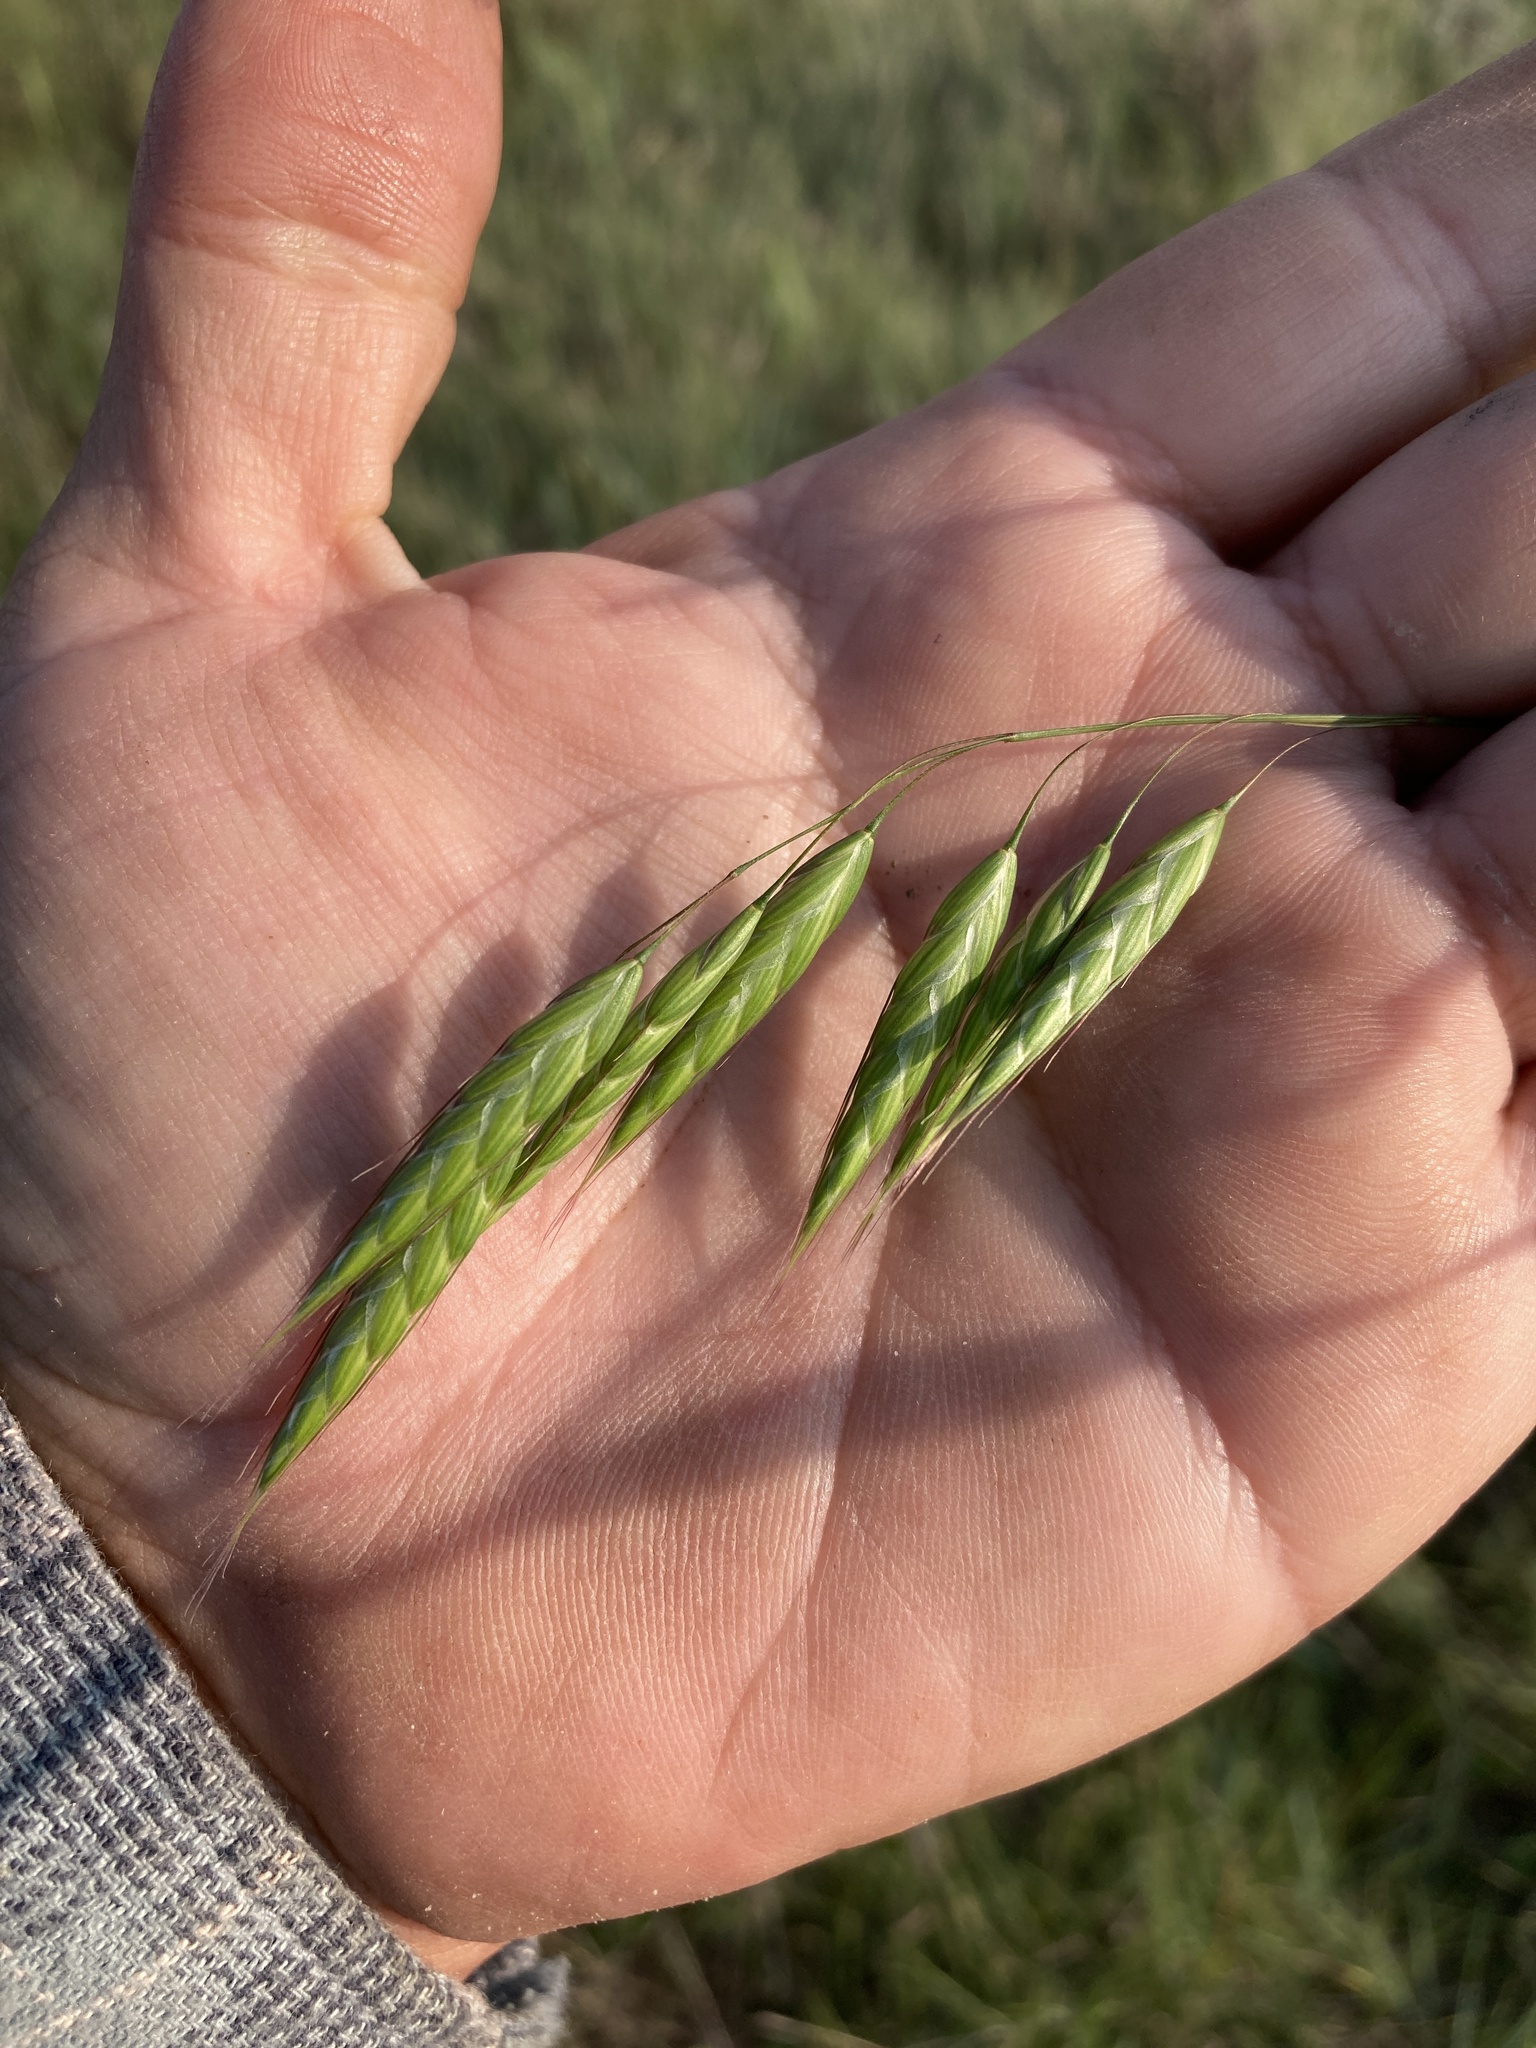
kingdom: Plantae
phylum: Tracheophyta
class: Liliopsida
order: Poales
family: Poaceae
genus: Bromus
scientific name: Bromus squarrosus
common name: Corn brome
